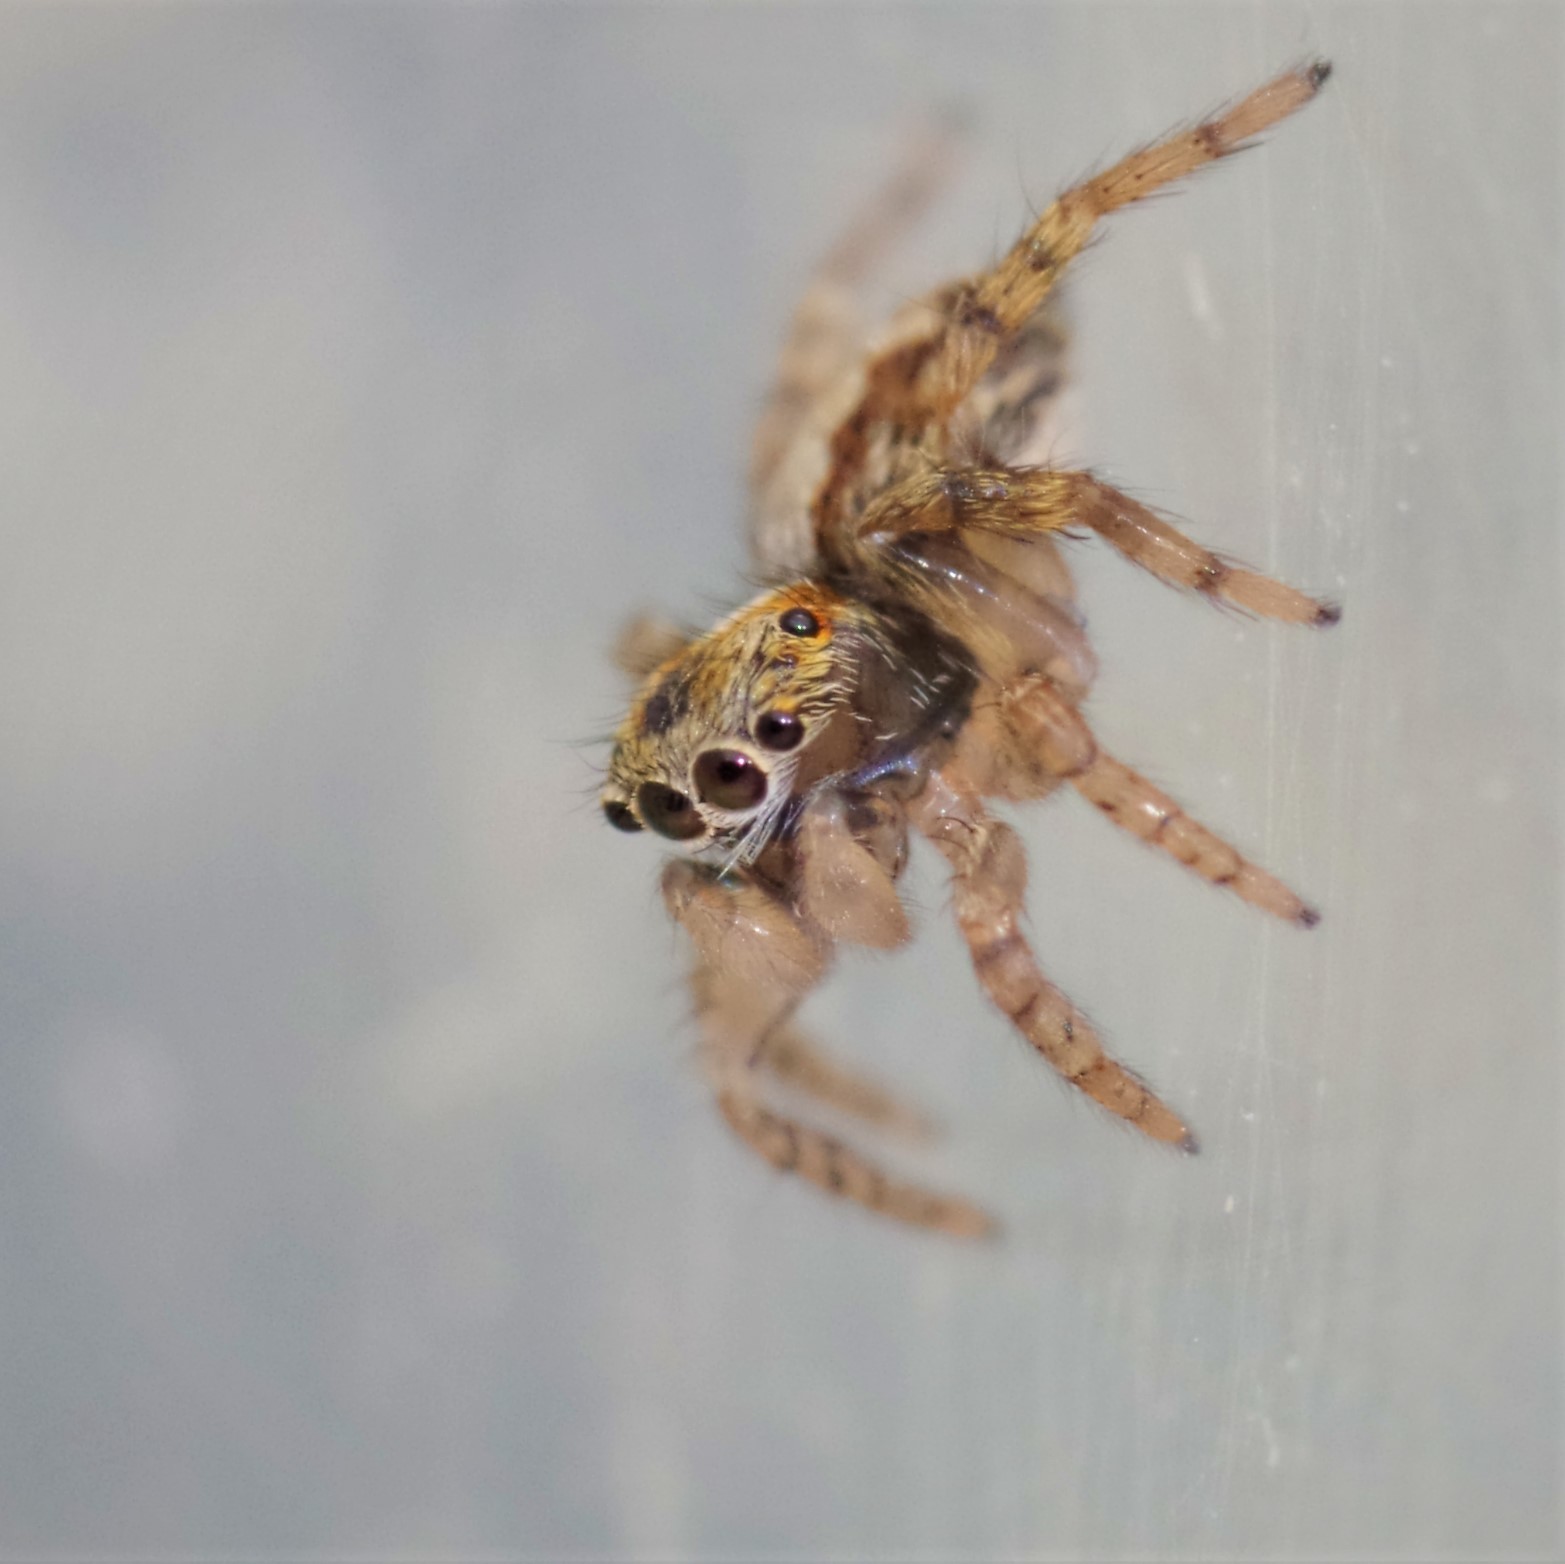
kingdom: Animalia
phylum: Arthropoda
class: Arachnida
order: Araneae
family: Salticidae
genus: Saitis
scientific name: Saitis barbipes
